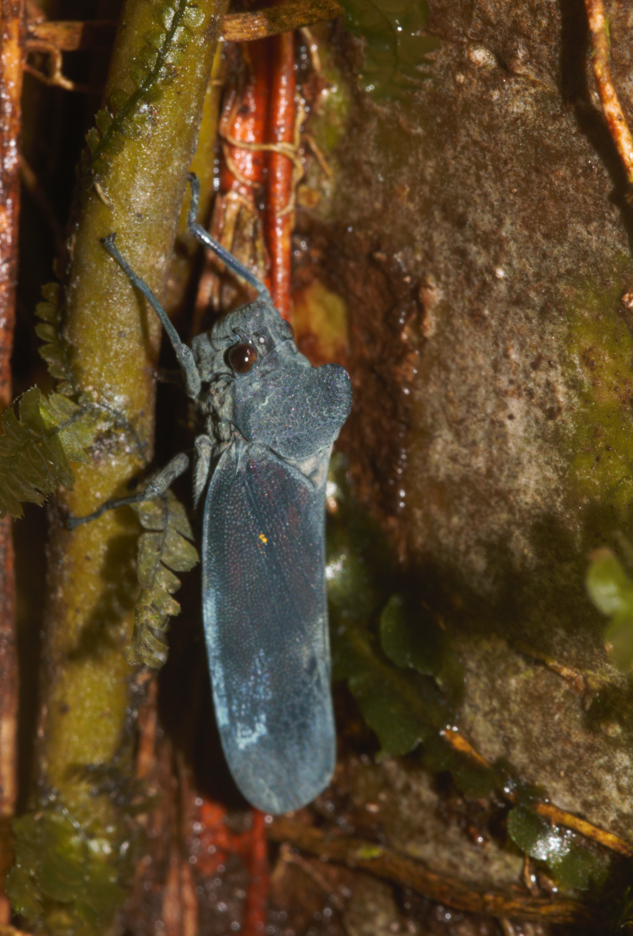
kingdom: Animalia
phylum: Arthropoda
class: Insecta
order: Hemiptera
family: Cicadellidae
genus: Proconia
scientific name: Proconia esmeraldae
